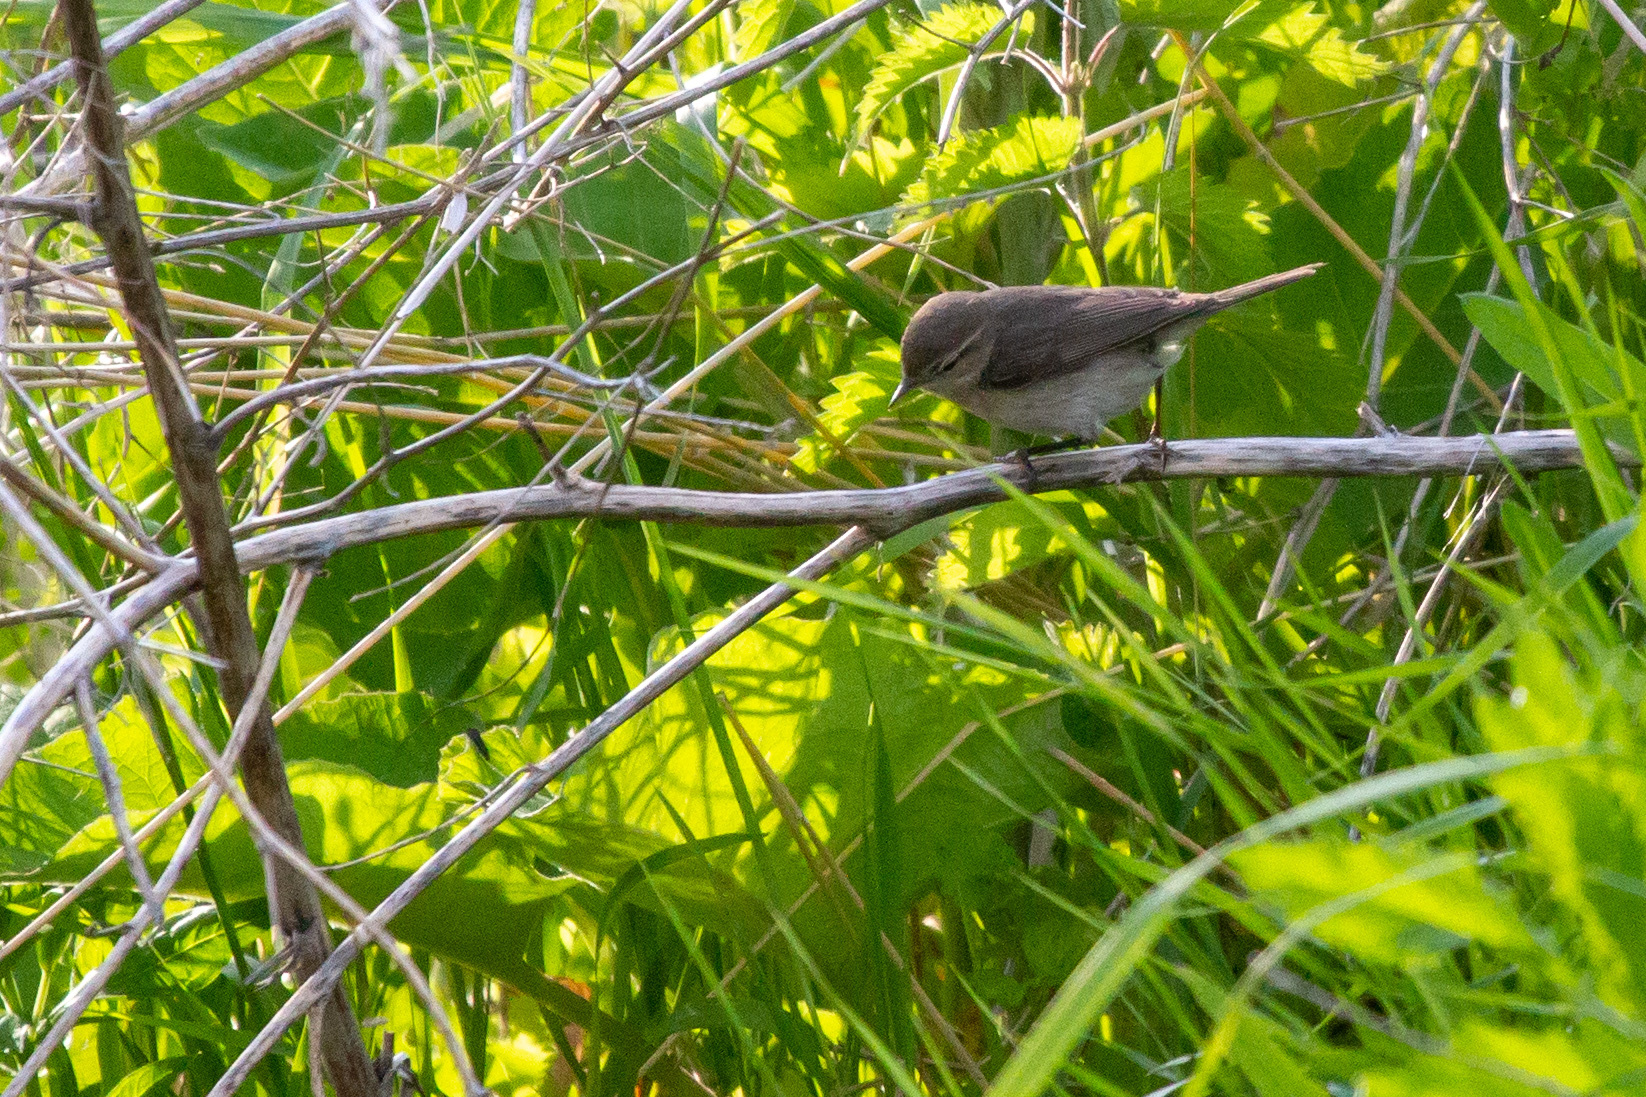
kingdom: Animalia
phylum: Chordata
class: Aves
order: Passeriformes
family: Acrocephalidae
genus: Iduna
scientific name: Iduna caligata
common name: Booted warbler
